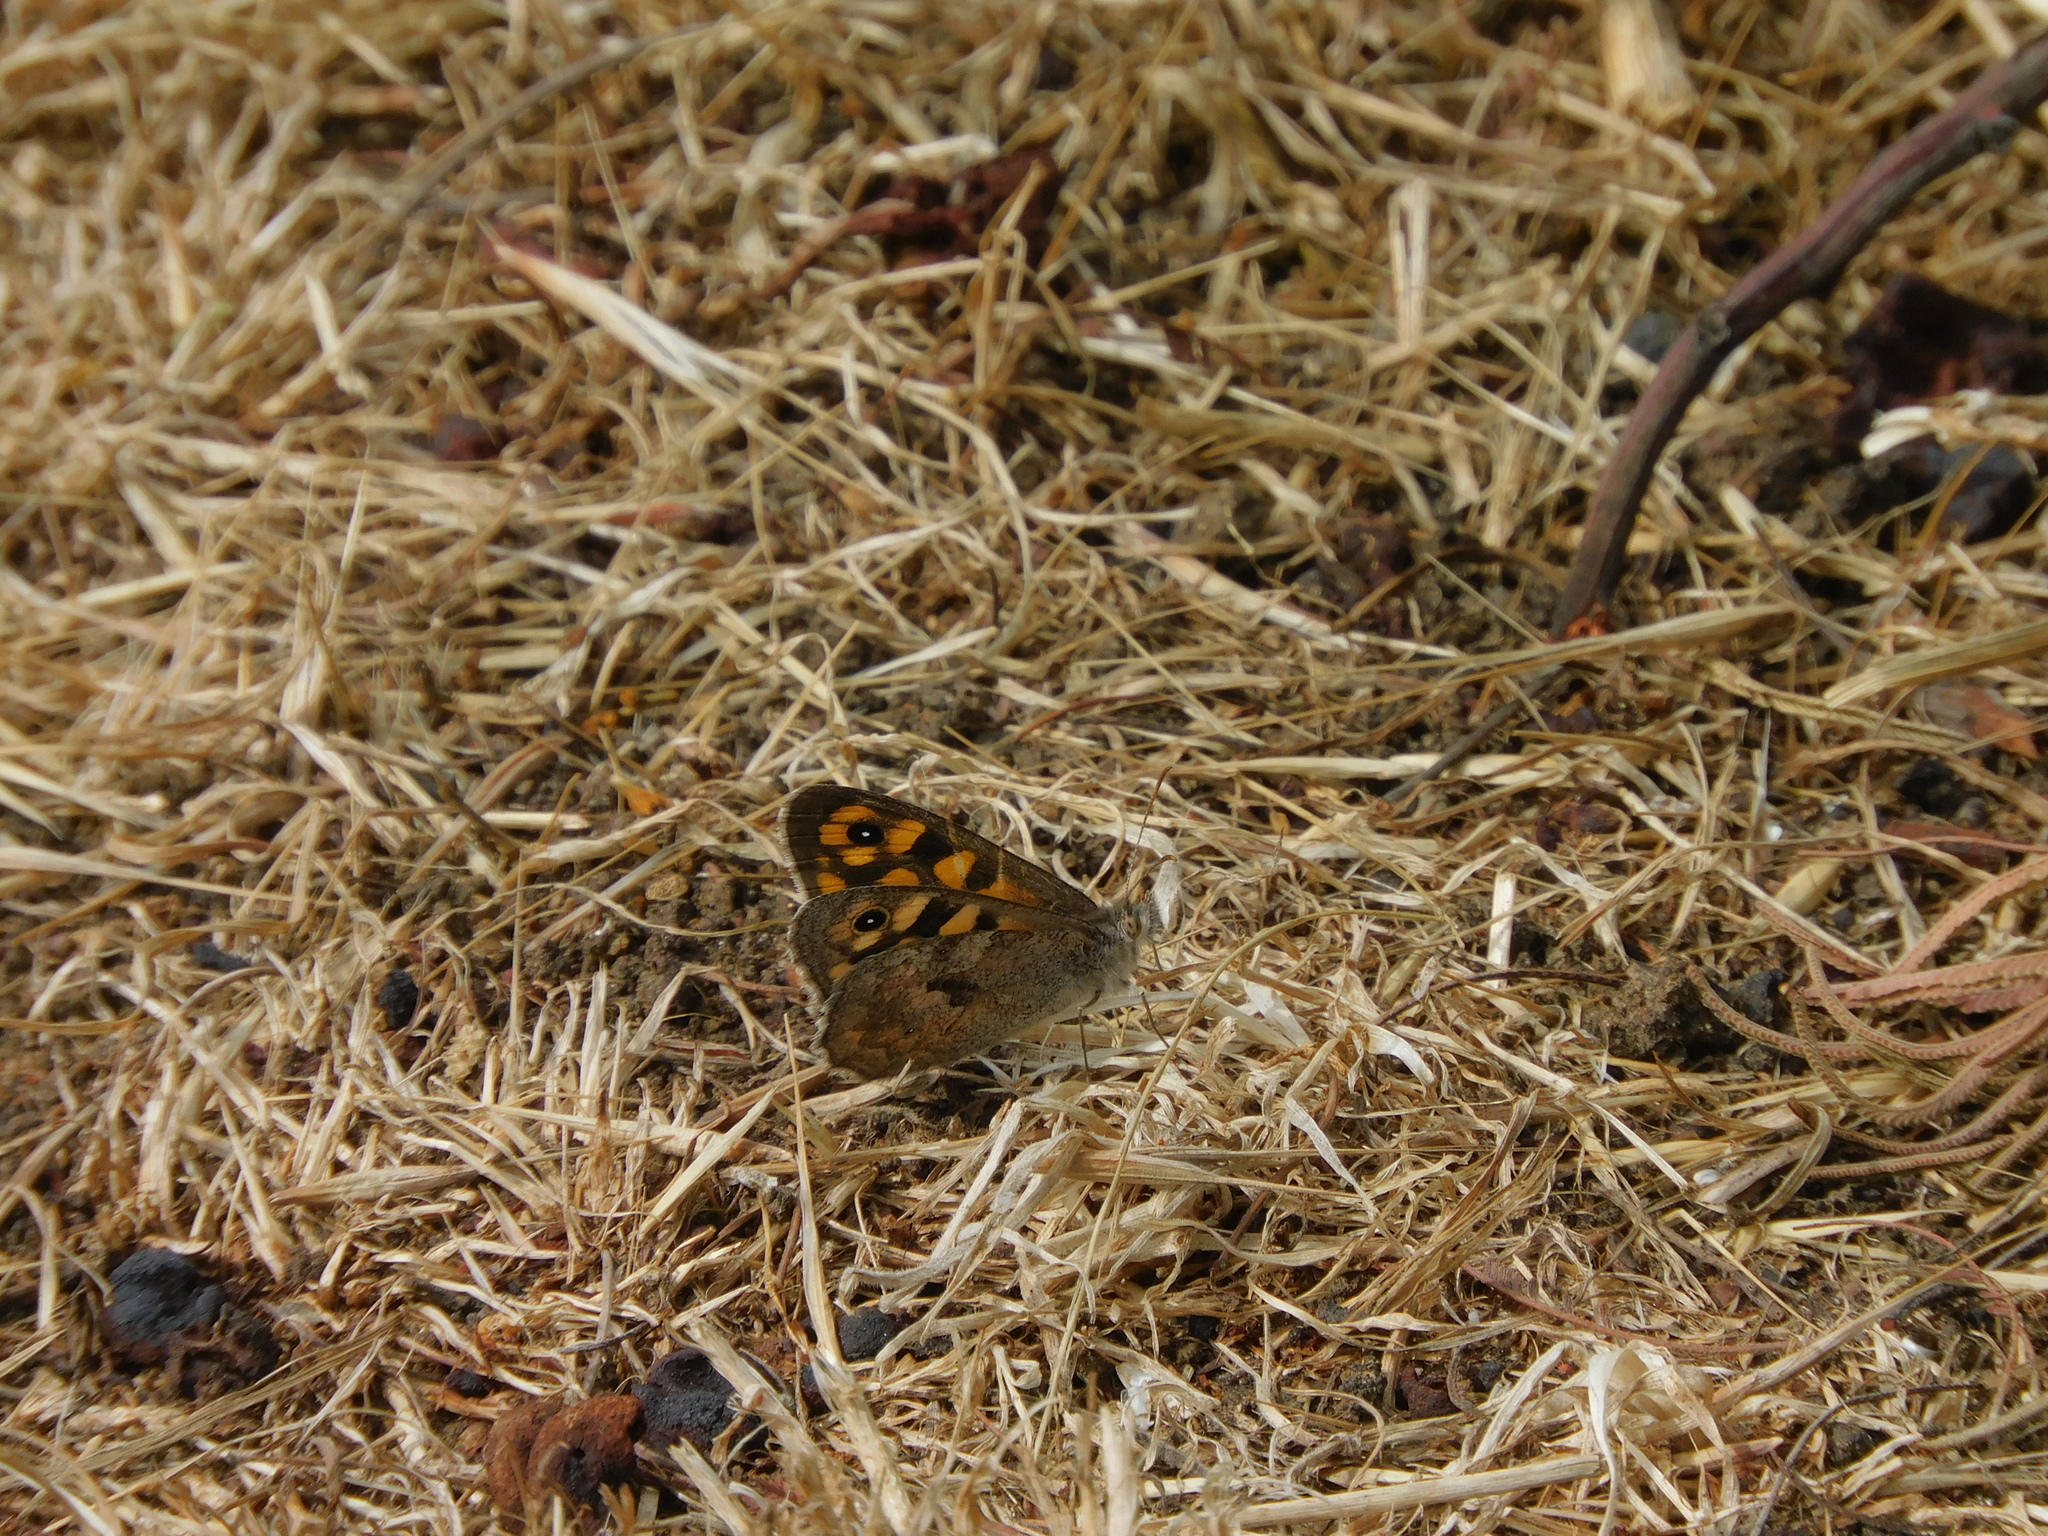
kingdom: Animalia
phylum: Arthropoda
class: Insecta
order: Lepidoptera
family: Nymphalidae
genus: Geitoneura
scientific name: Geitoneura klugii
